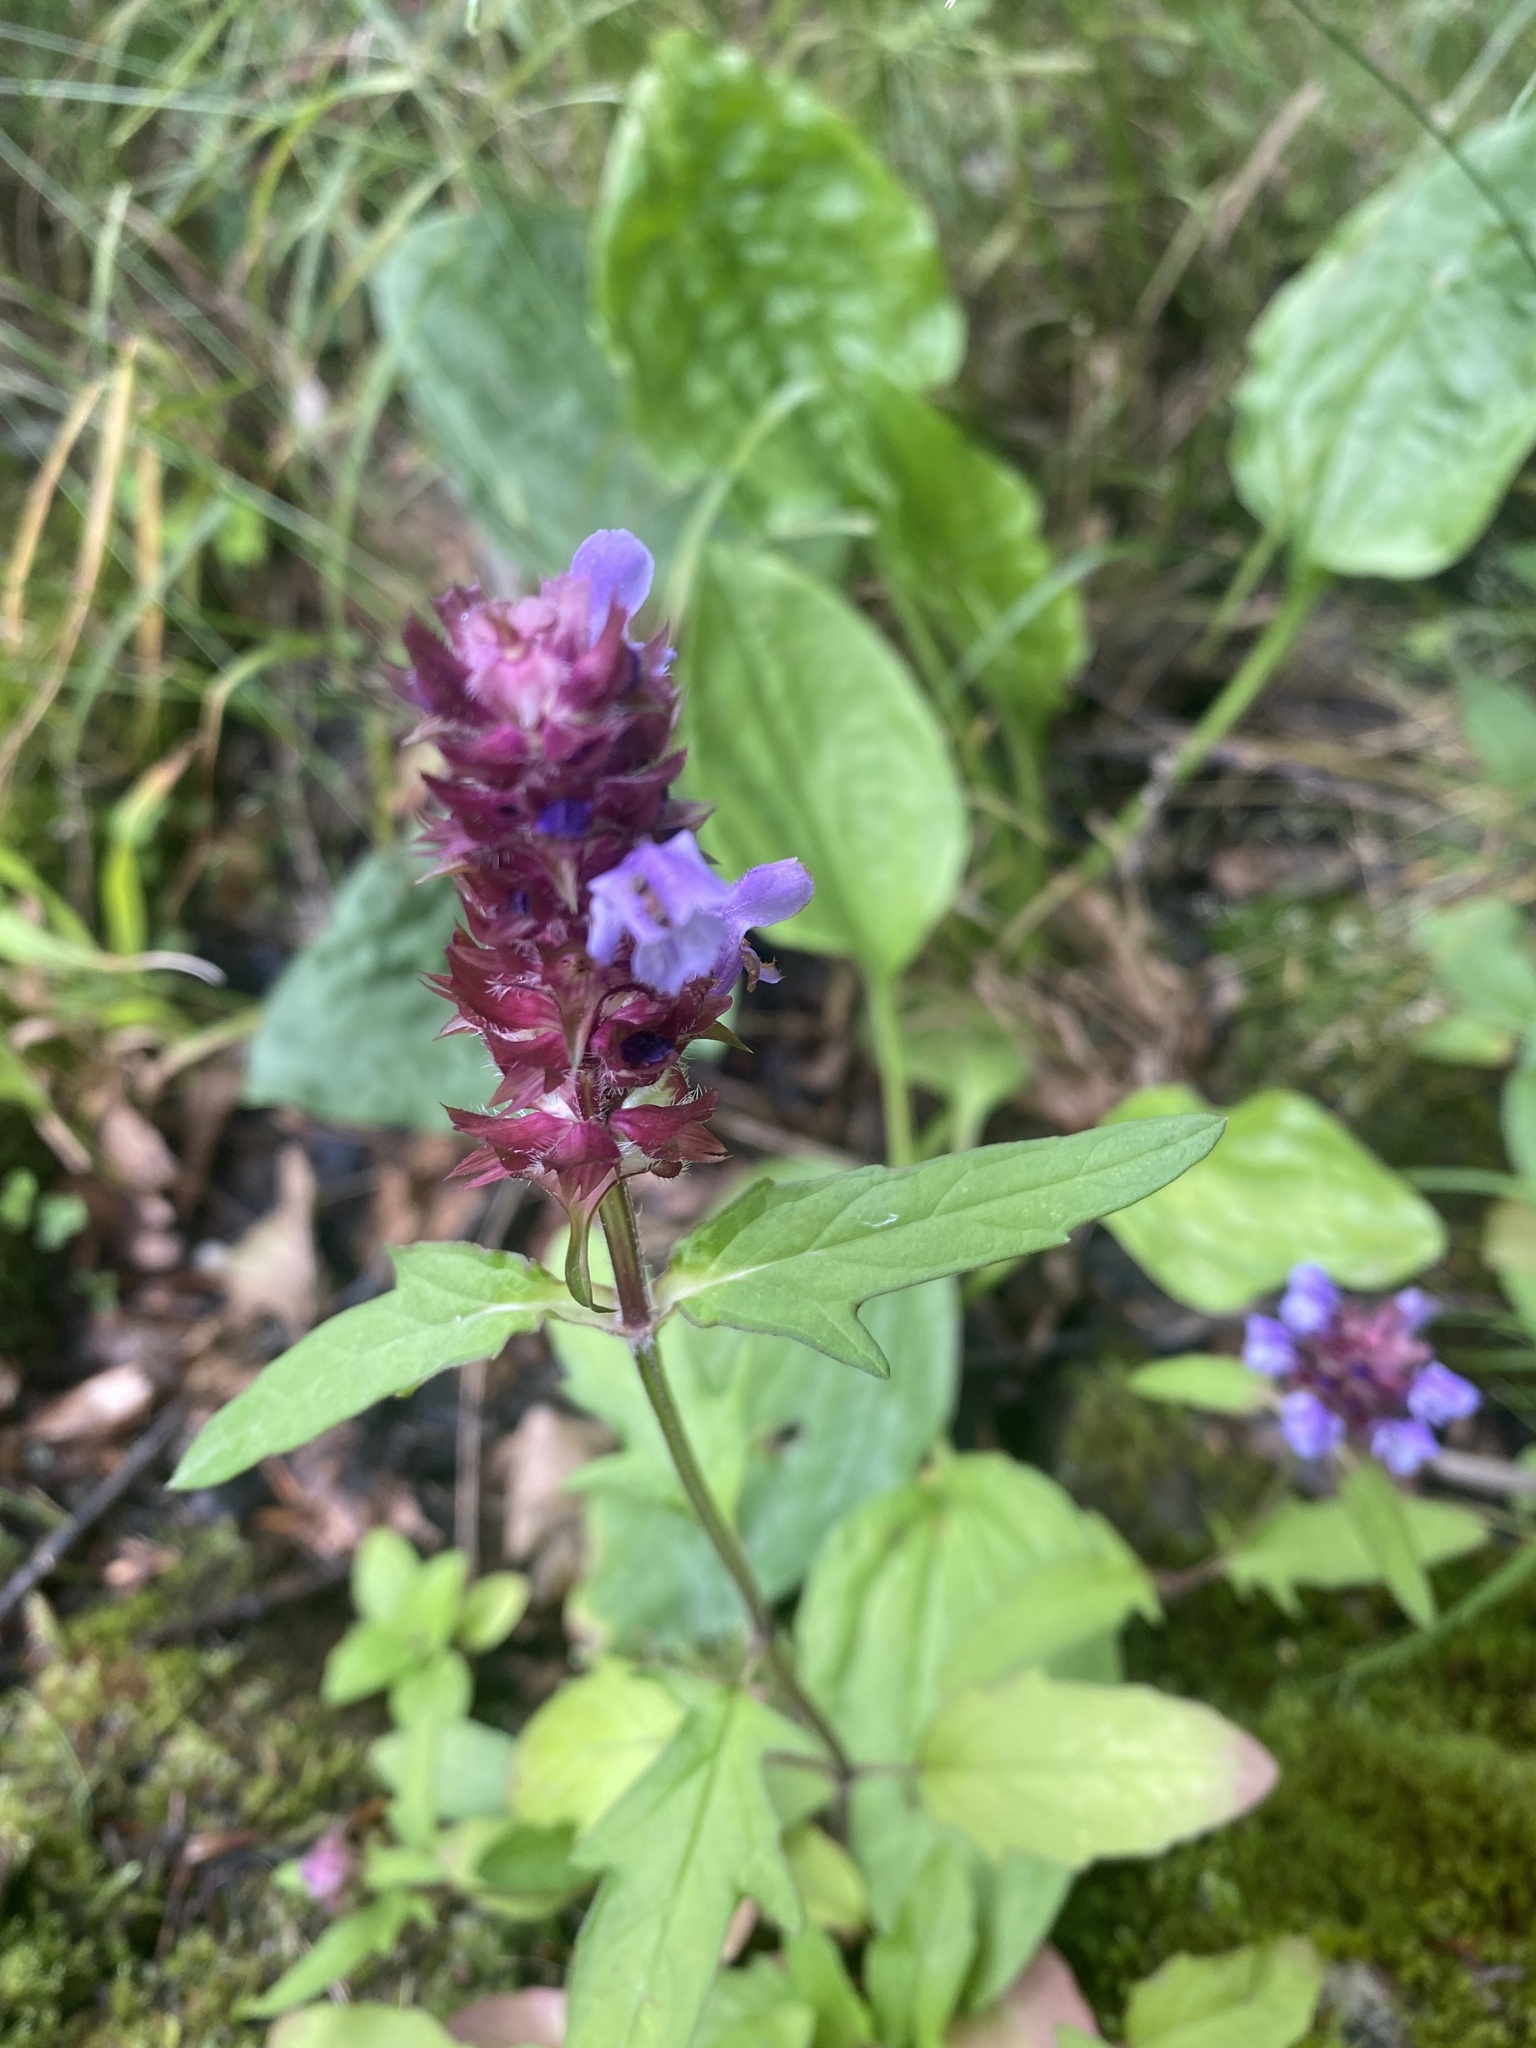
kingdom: Plantae
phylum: Tracheophyta
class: Magnoliopsida
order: Lamiales
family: Lamiaceae
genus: Prunella
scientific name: Prunella vulgaris
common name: Heal-all
